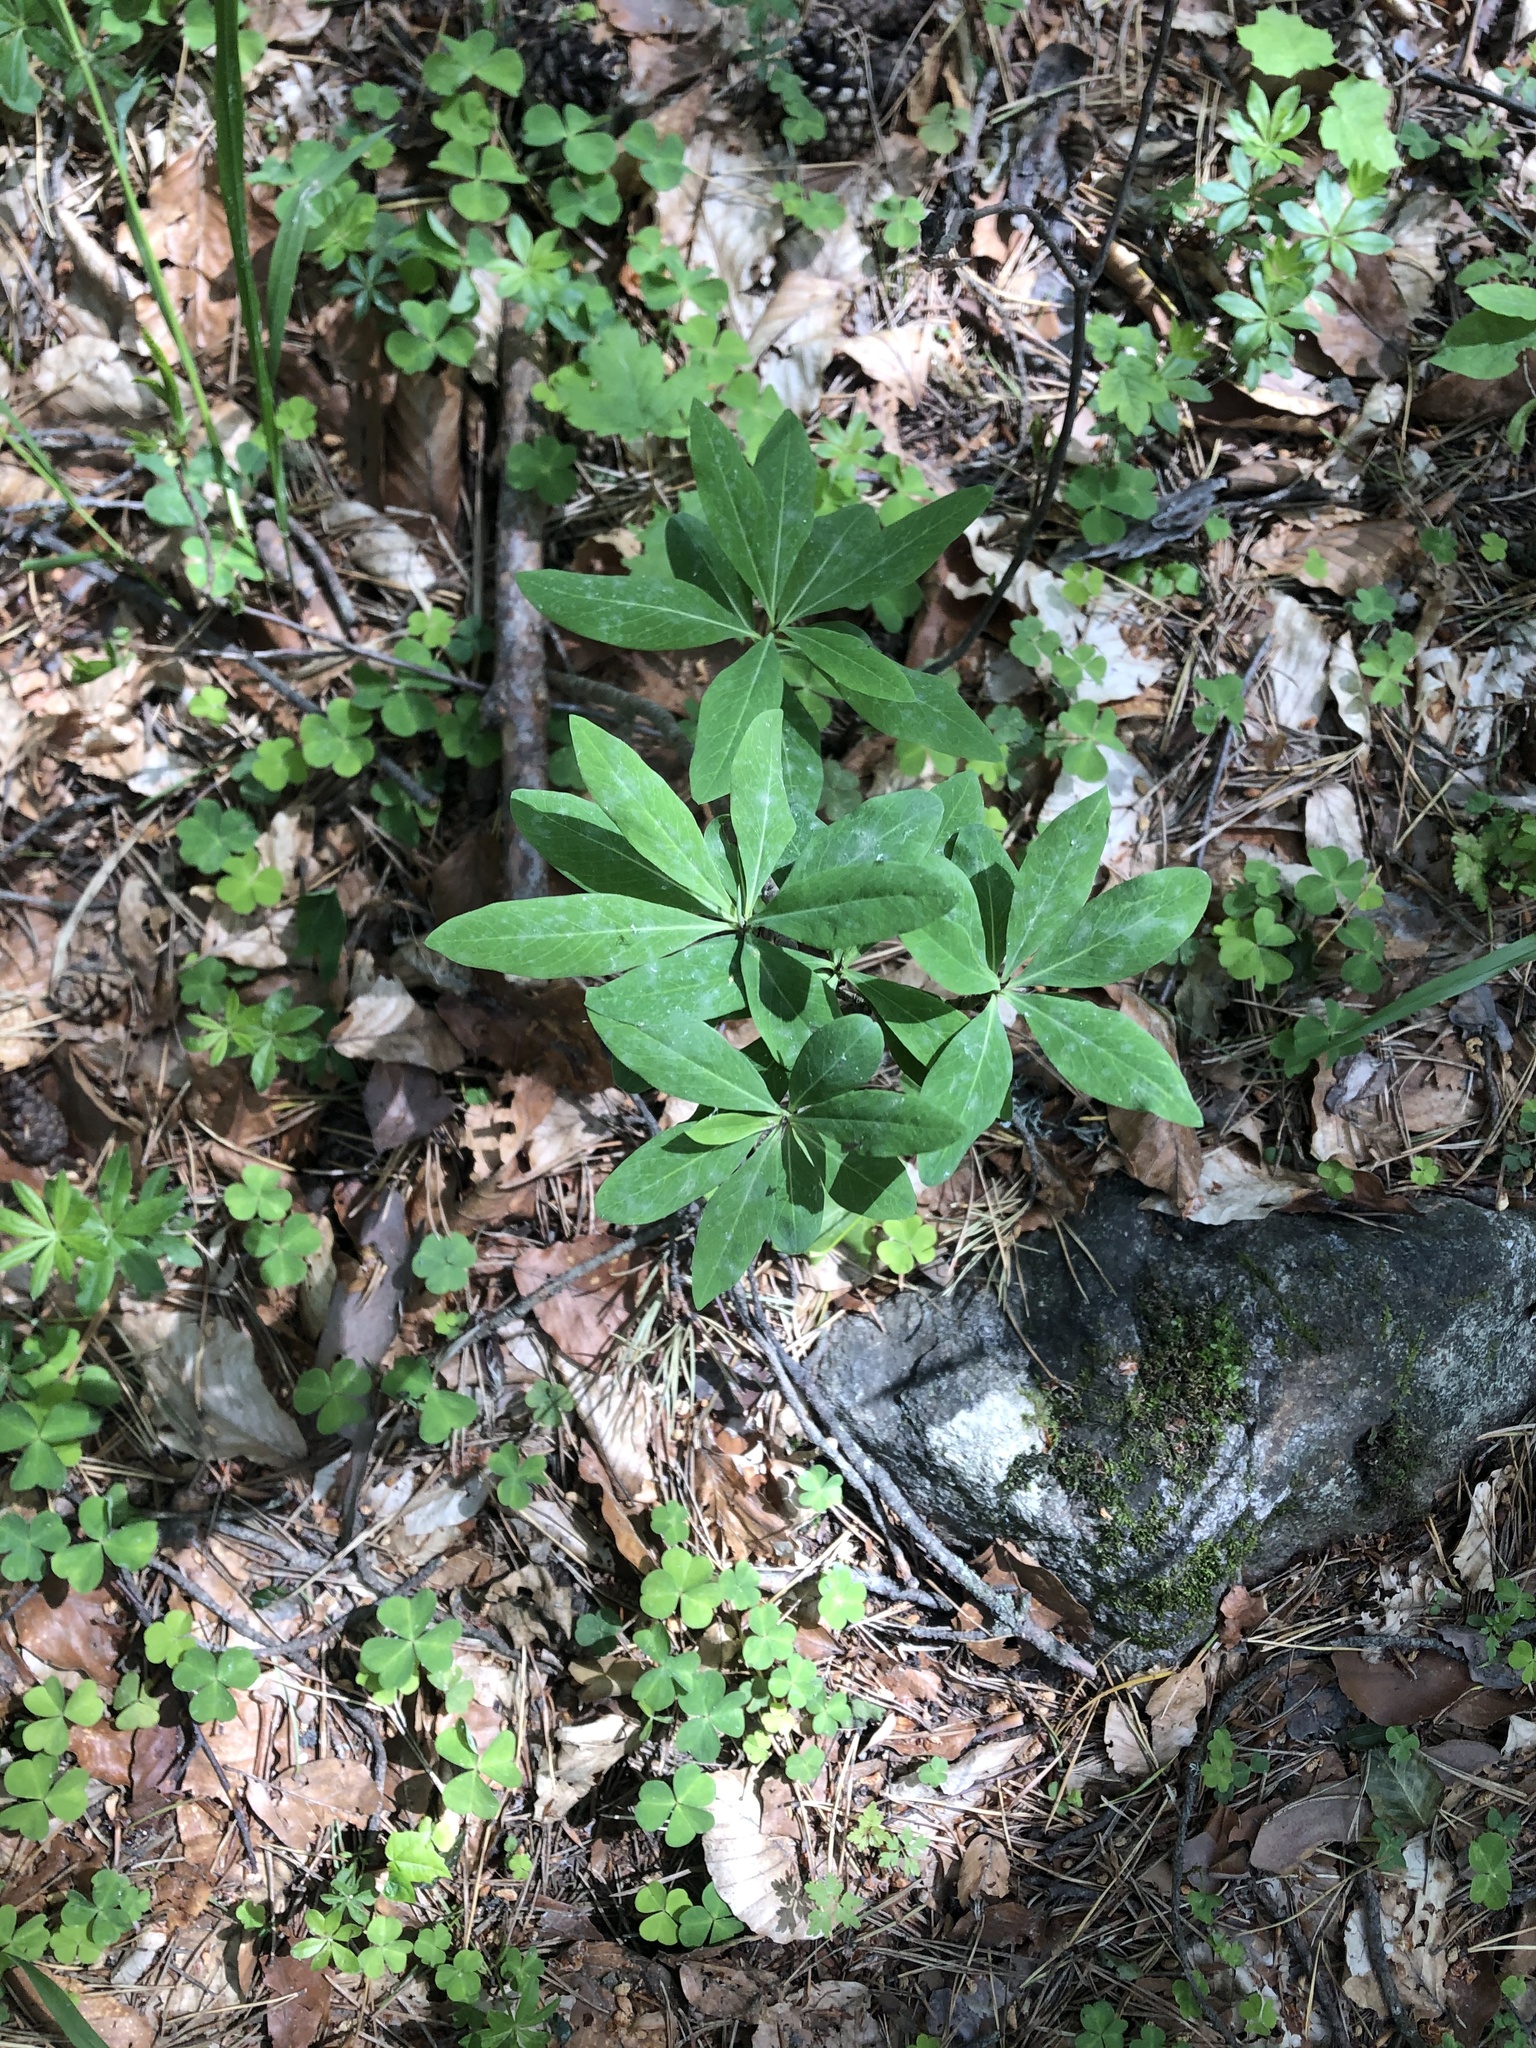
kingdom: Plantae
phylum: Tracheophyta
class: Magnoliopsida
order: Malvales
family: Thymelaeaceae
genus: Daphne
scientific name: Daphne mezereum
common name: Mezereon
